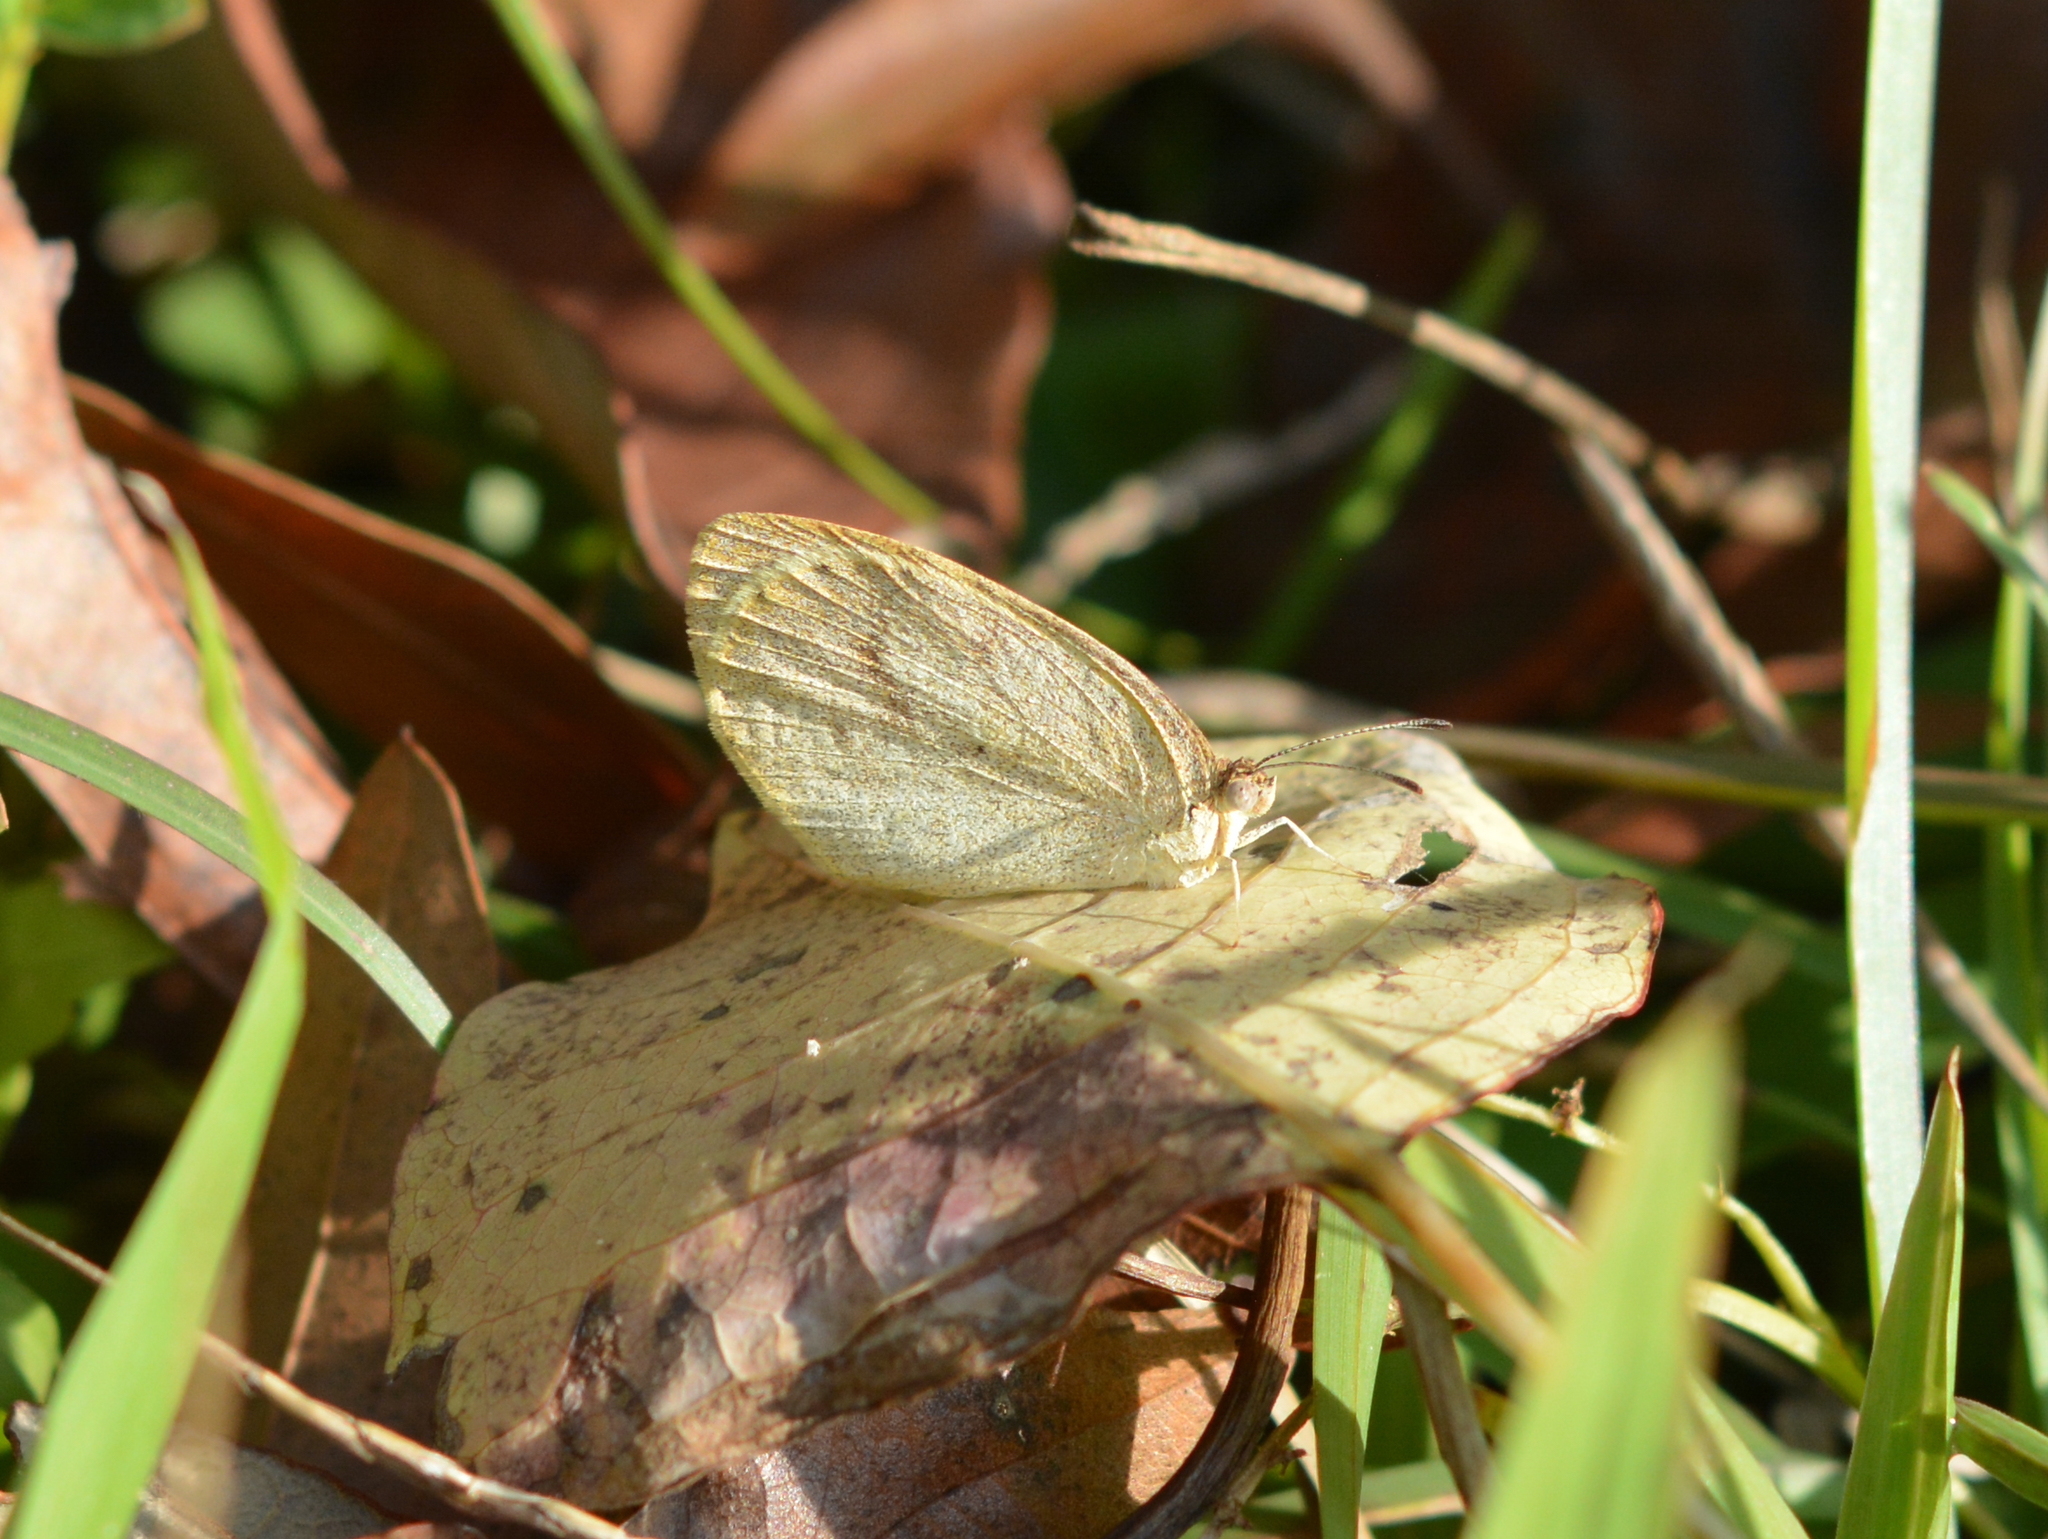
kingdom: Animalia
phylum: Arthropoda
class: Insecta
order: Lepidoptera
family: Pieridae
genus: Eurema
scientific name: Eurema daira
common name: Barred sulphur
